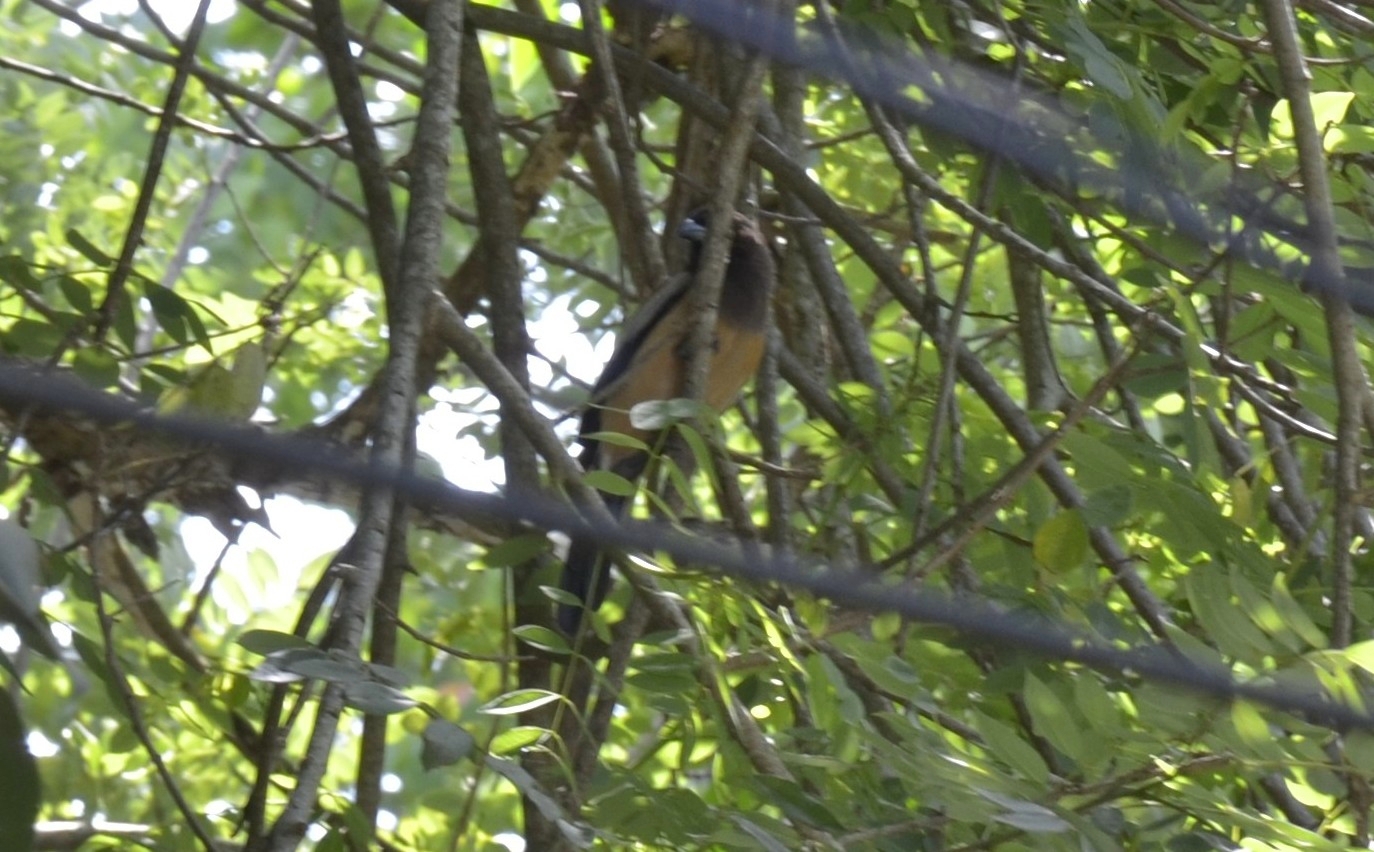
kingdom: Animalia
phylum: Chordata
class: Aves
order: Passeriformes
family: Corvidae
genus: Dendrocitta
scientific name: Dendrocitta vagabunda
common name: Rufous treepie
